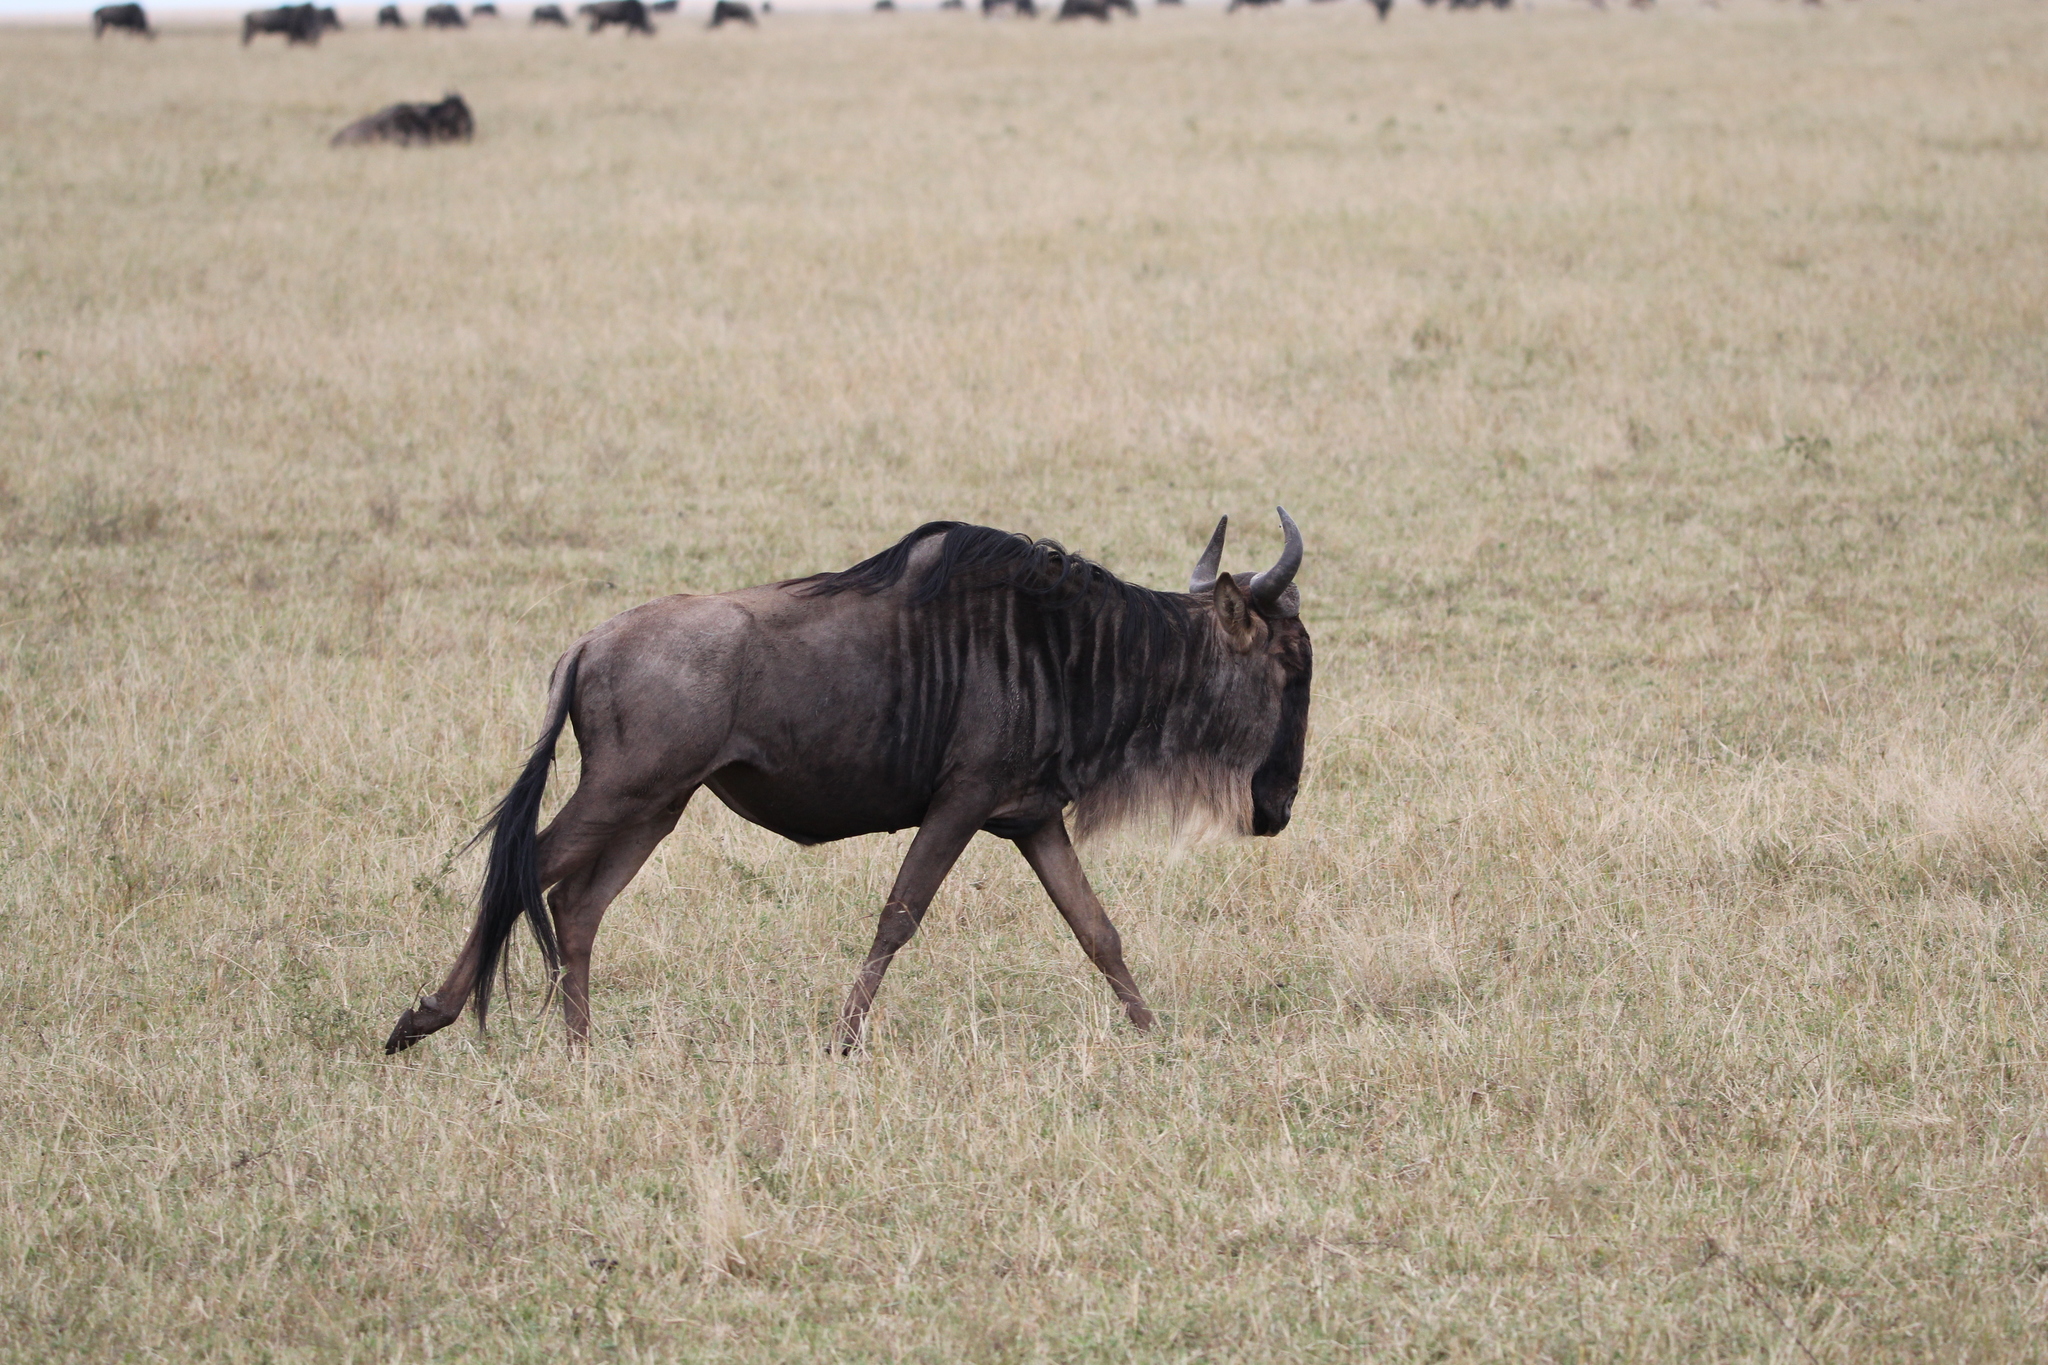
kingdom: Animalia
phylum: Chordata
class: Mammalia
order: Artiodactyla
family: Bovidae
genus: Connochaetes
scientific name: Connochaetes taurinus
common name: Blue wildebeest
